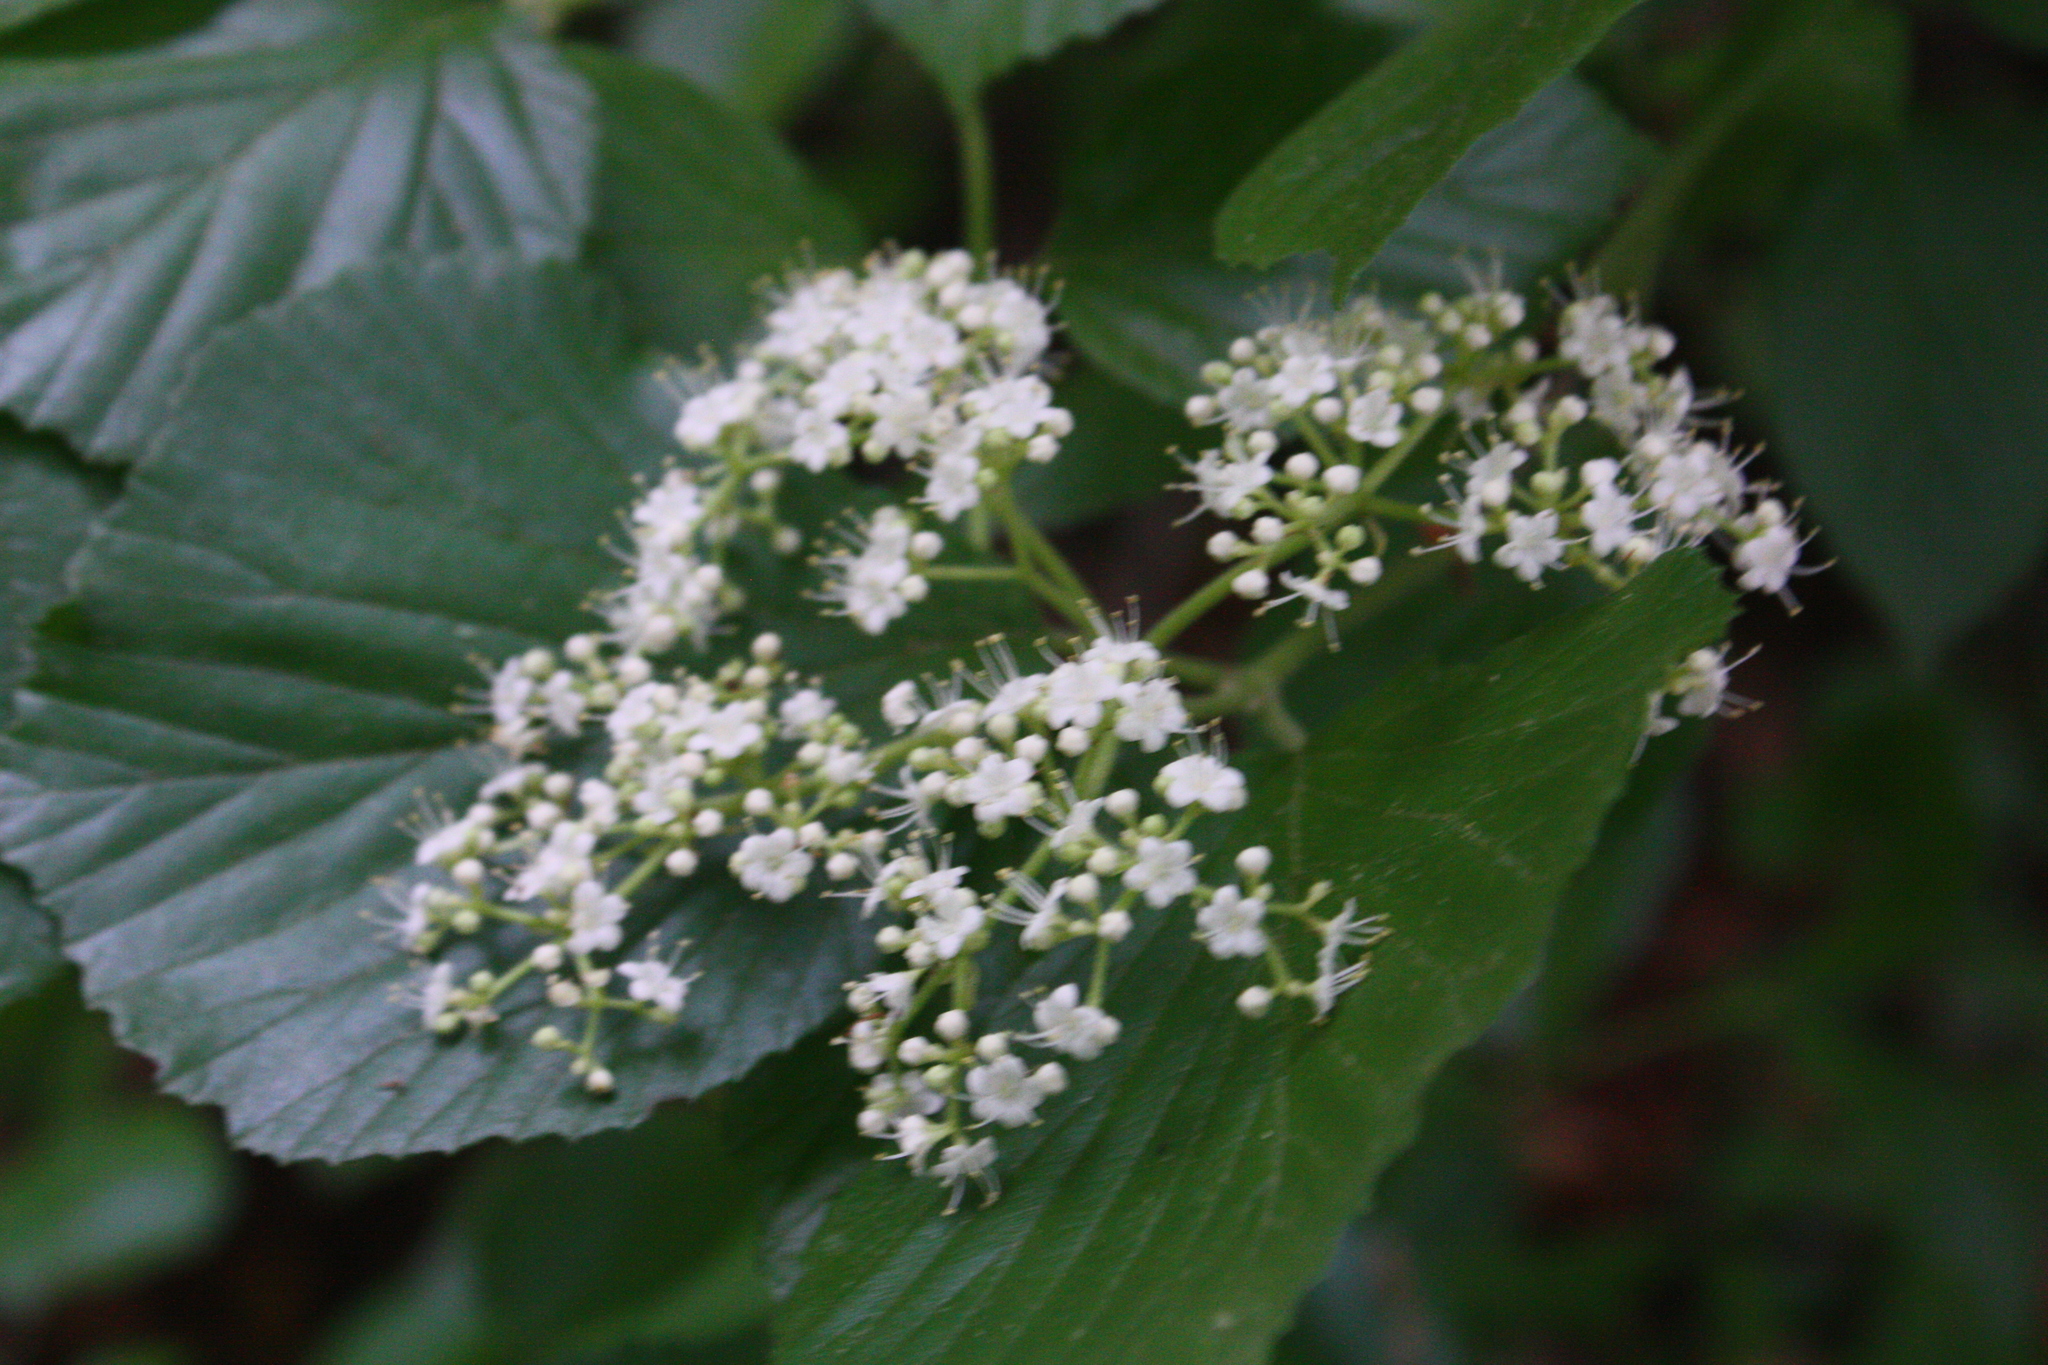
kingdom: Plantae
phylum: Tracheophyta
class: Magnoliopsida
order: Dipsacales
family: Viburnaceae
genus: Viburnum
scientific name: Viburnum dilatatum
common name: Linden arrowwood
